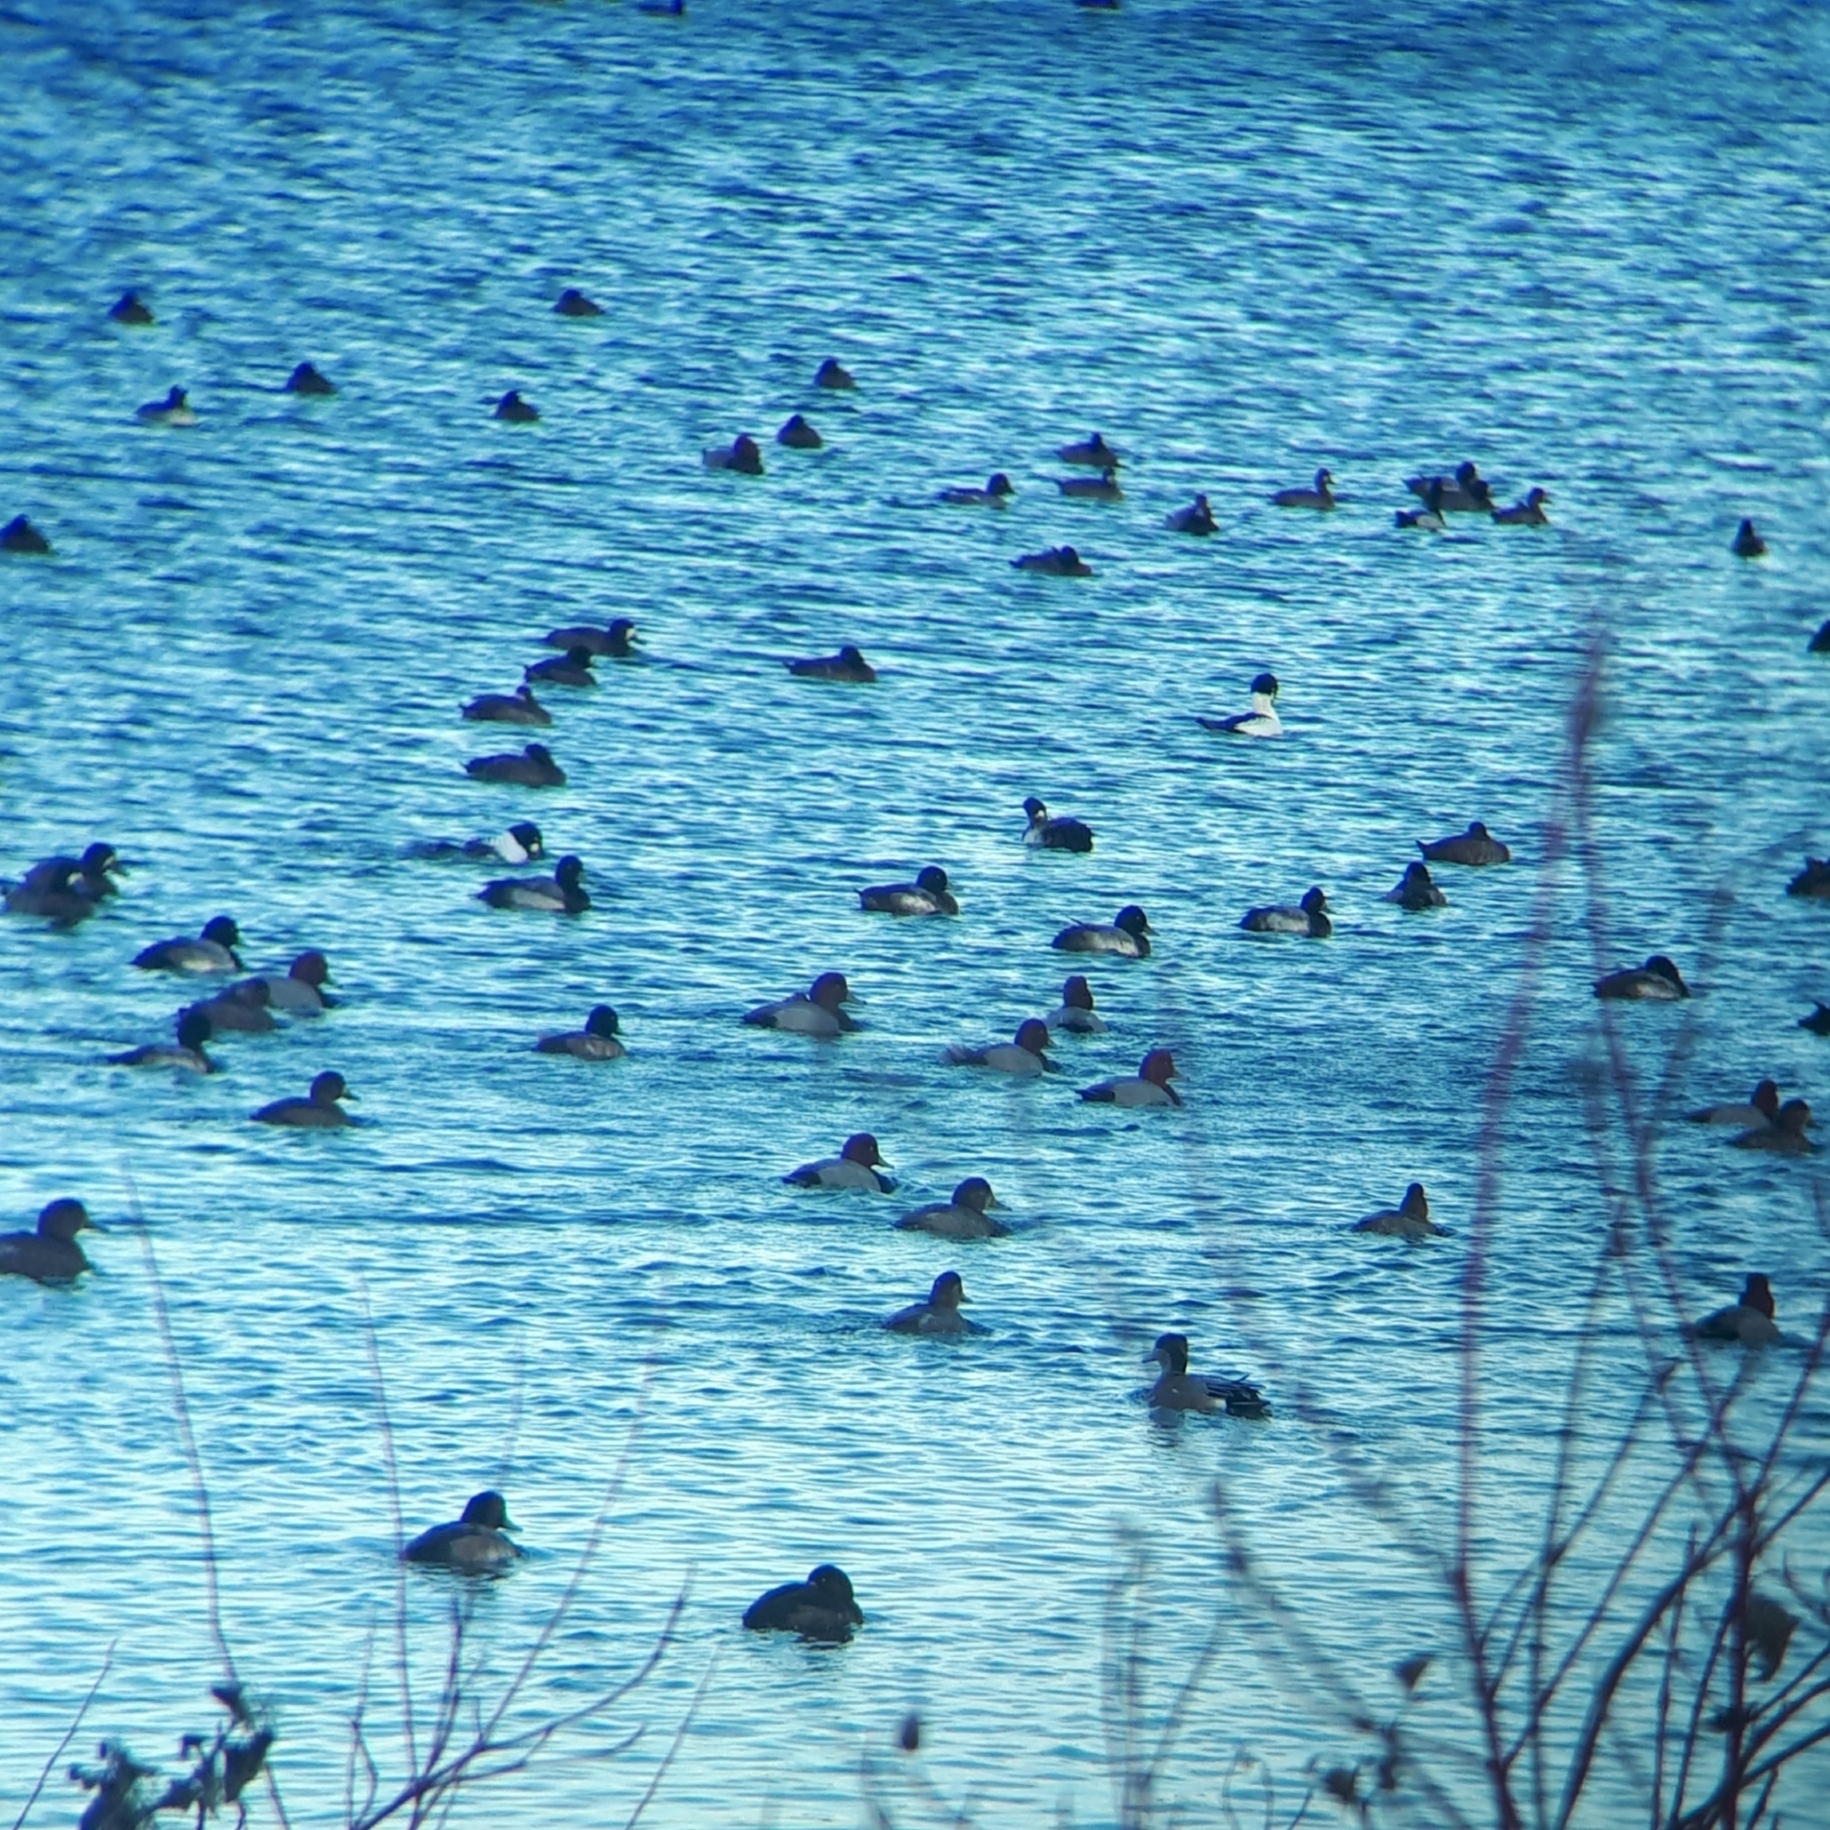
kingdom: Animalia
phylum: Chordata
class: Aves
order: Anseriformes
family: Anatidae
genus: Aythya
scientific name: Aythya americana
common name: Redhead
